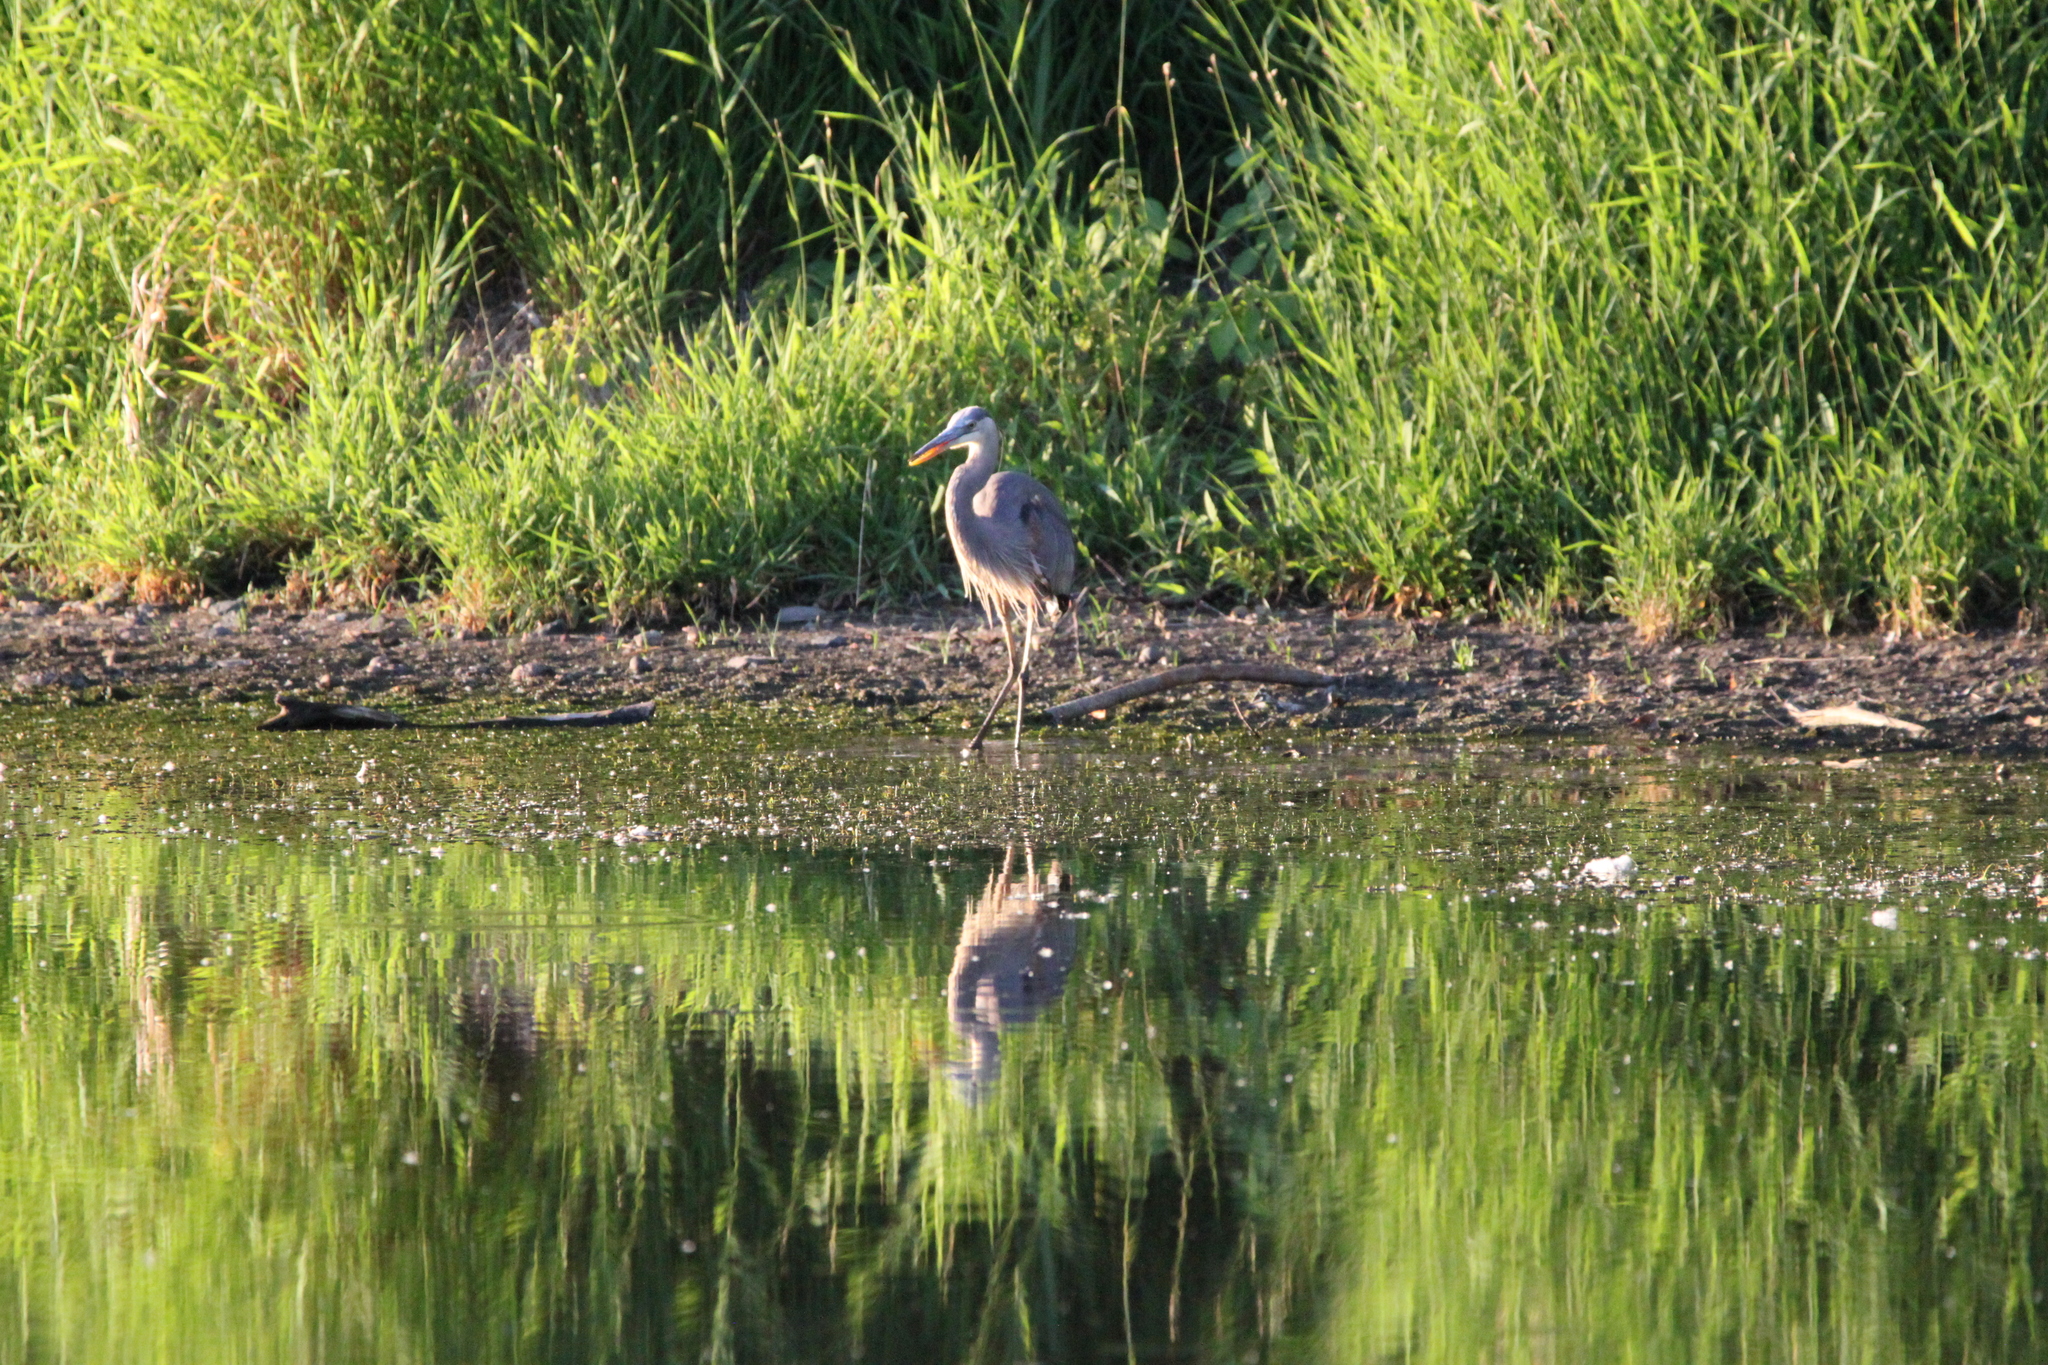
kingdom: Animalia
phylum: Chordata
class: Aves
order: Pelecaniformes
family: Ardeidae
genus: Ardea
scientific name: Ardea herodias
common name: Great blue heron
